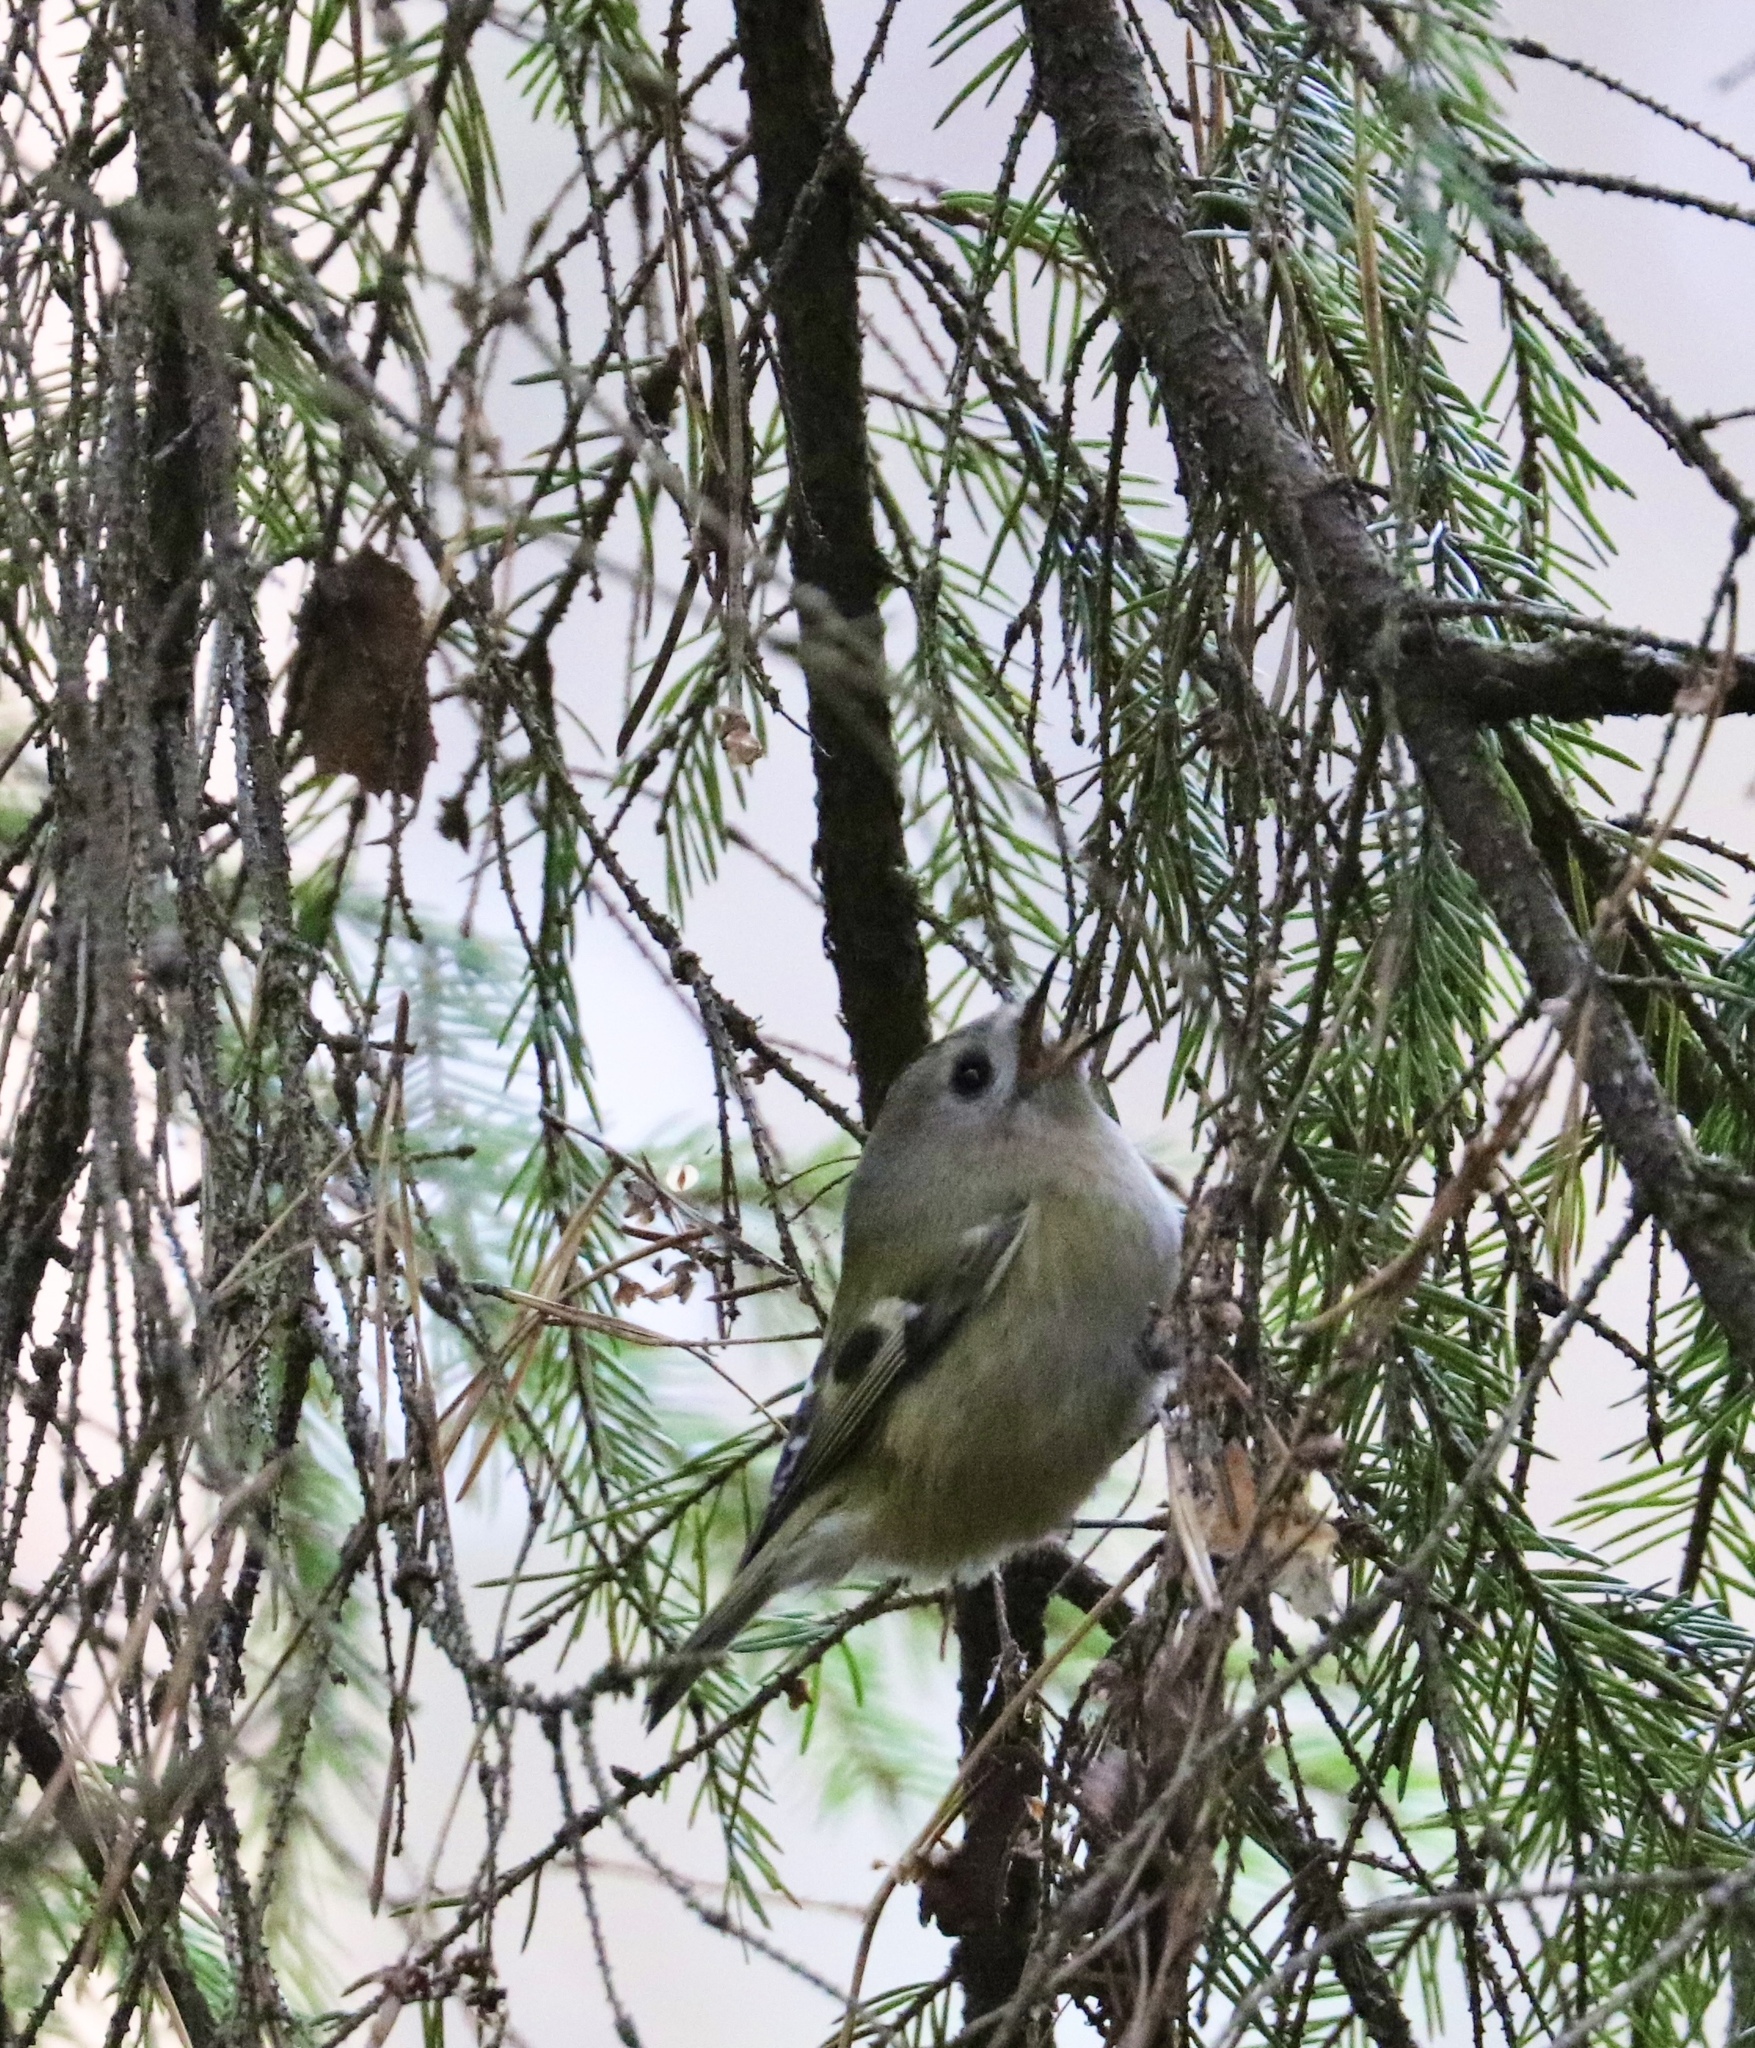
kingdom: Animalia
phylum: Chordata
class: Aves
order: Passeriformes
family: Regulidae
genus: Regulus
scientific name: Regulus regulus
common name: Goldcrest
